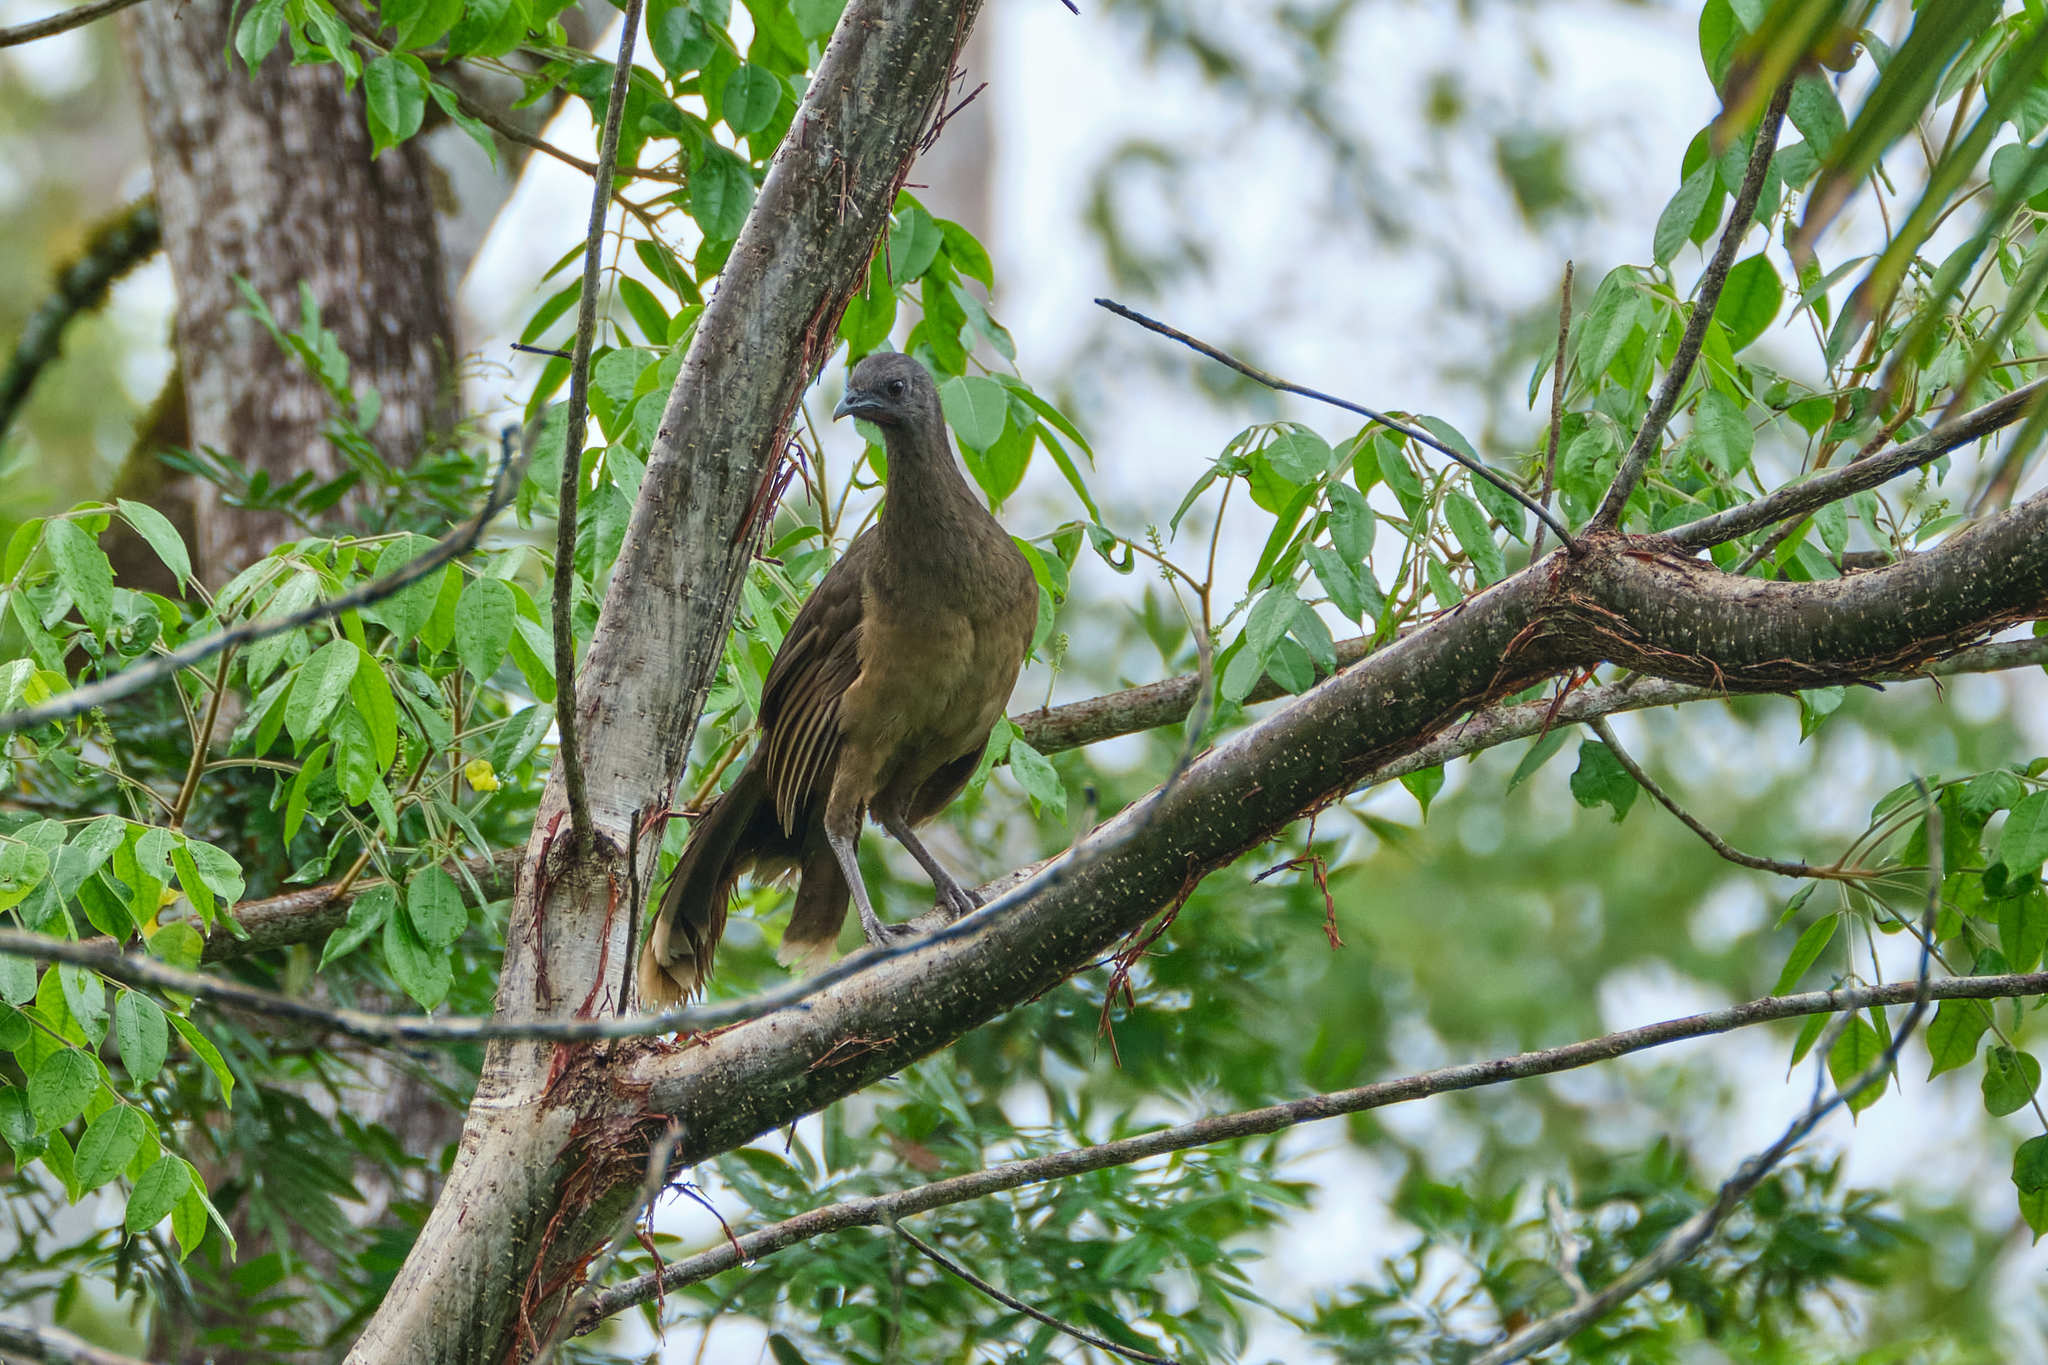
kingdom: Animalia
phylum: Chordata
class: Aves
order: Galliformes
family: Cracidae
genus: Ortalis
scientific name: Ortalis vetula
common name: Plain chachalaca
